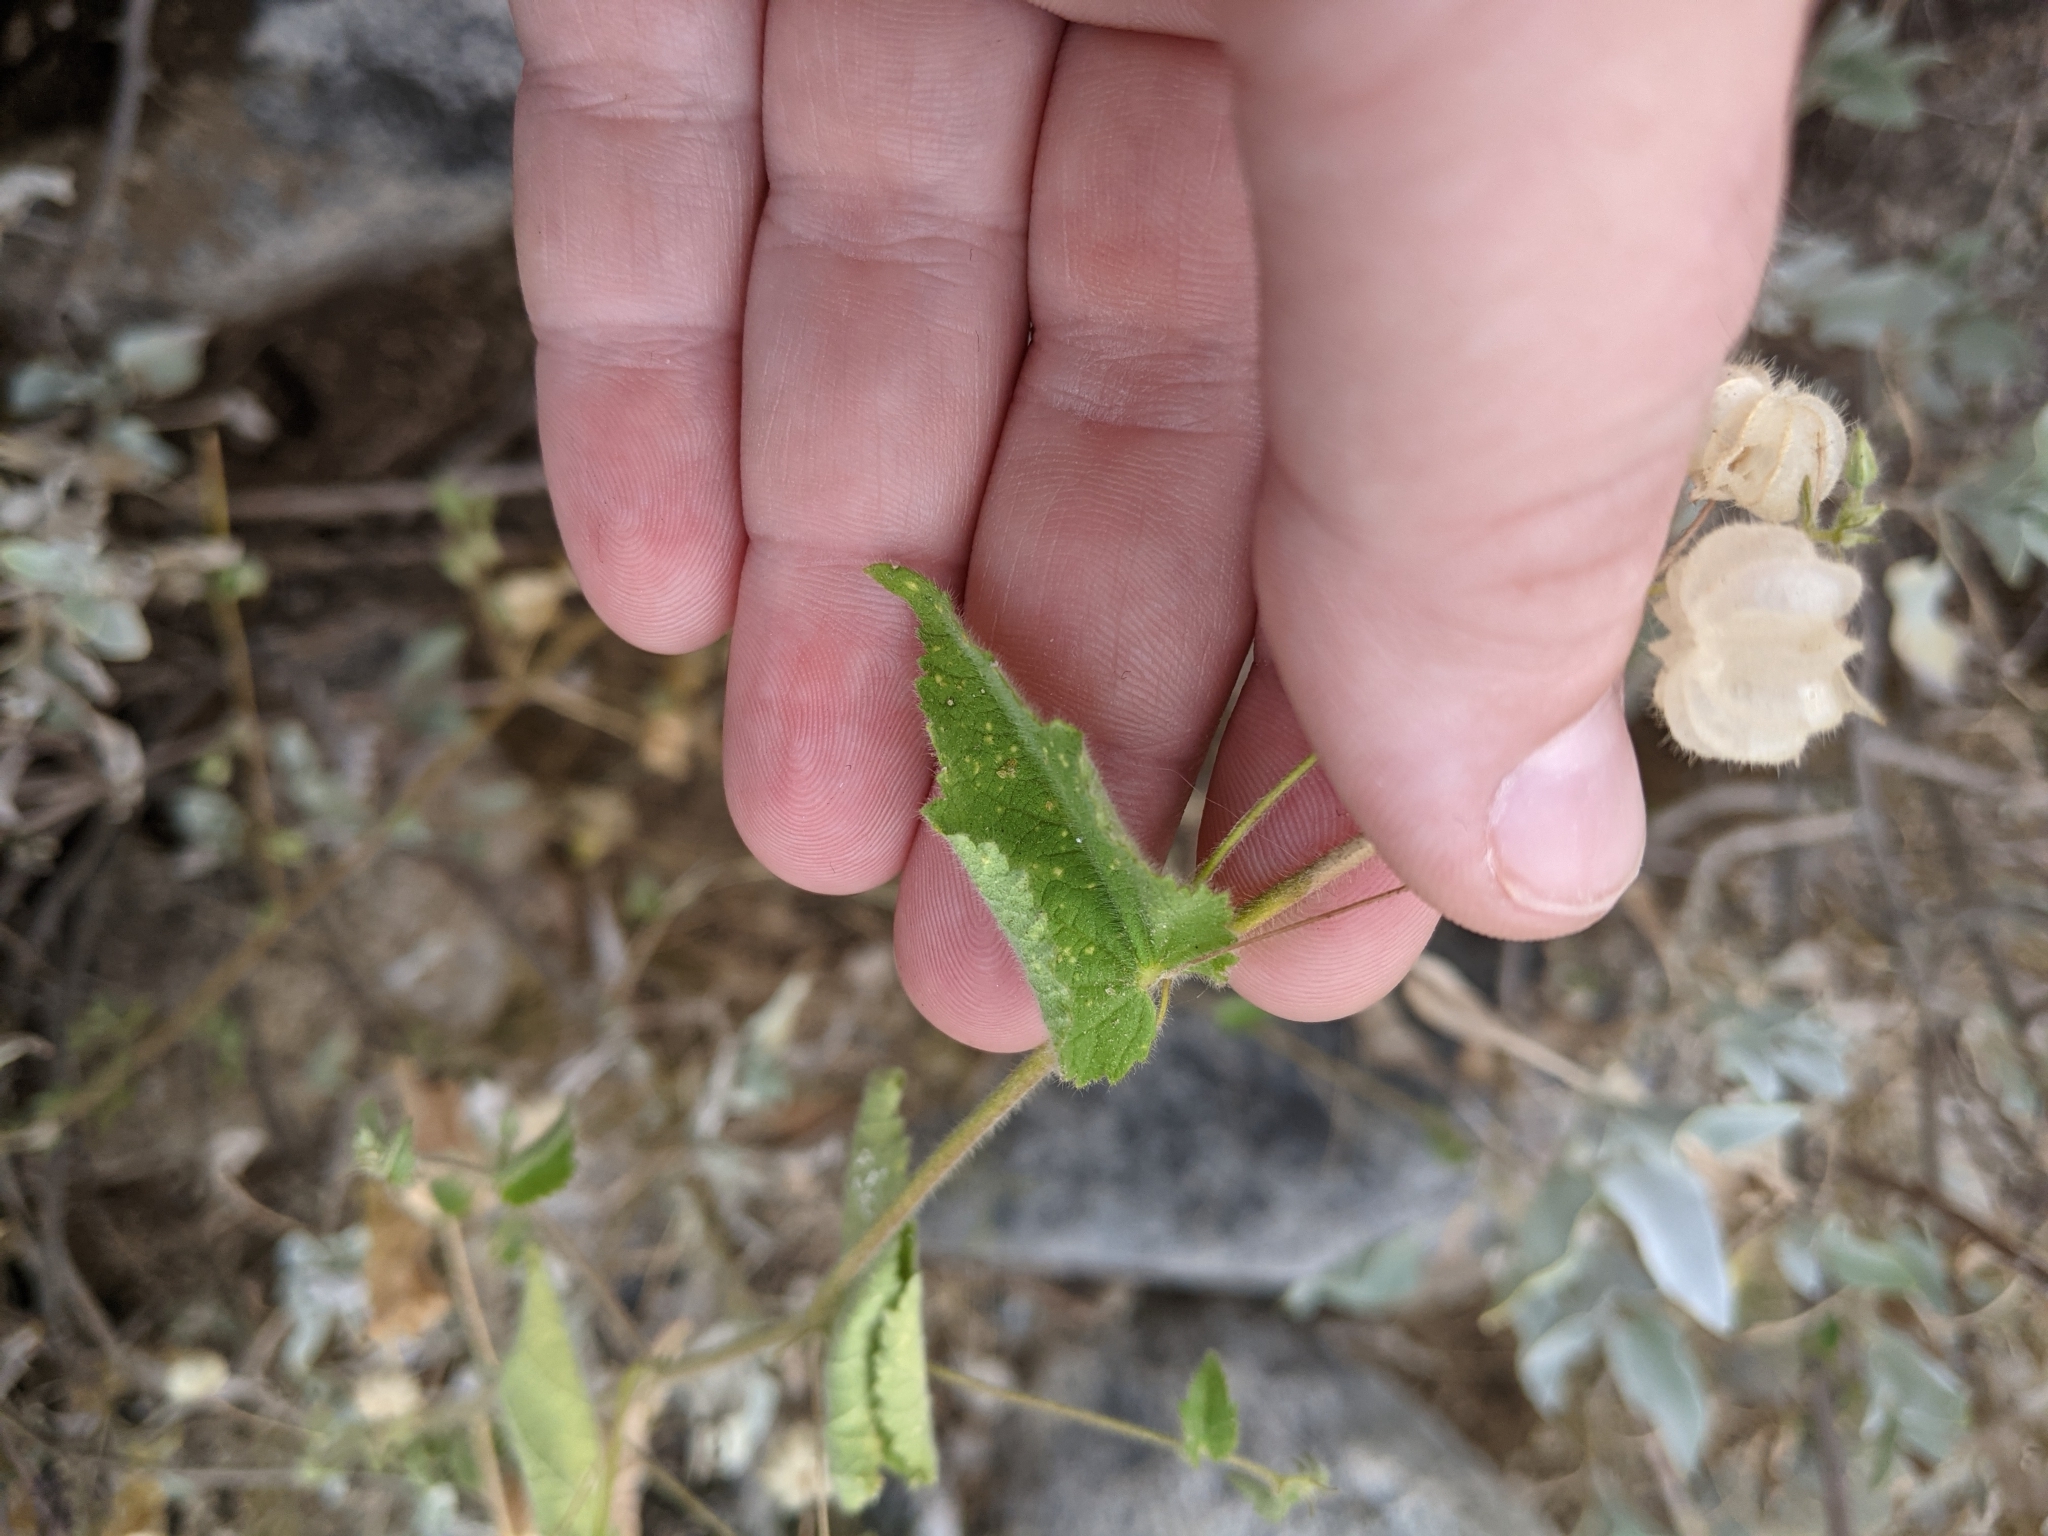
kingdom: Plantae
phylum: Tracheophyta
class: Magnoliopsida
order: Malvales
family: Malvaceae
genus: Herissantia
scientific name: Herissantia crispa
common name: Bladdermallow
